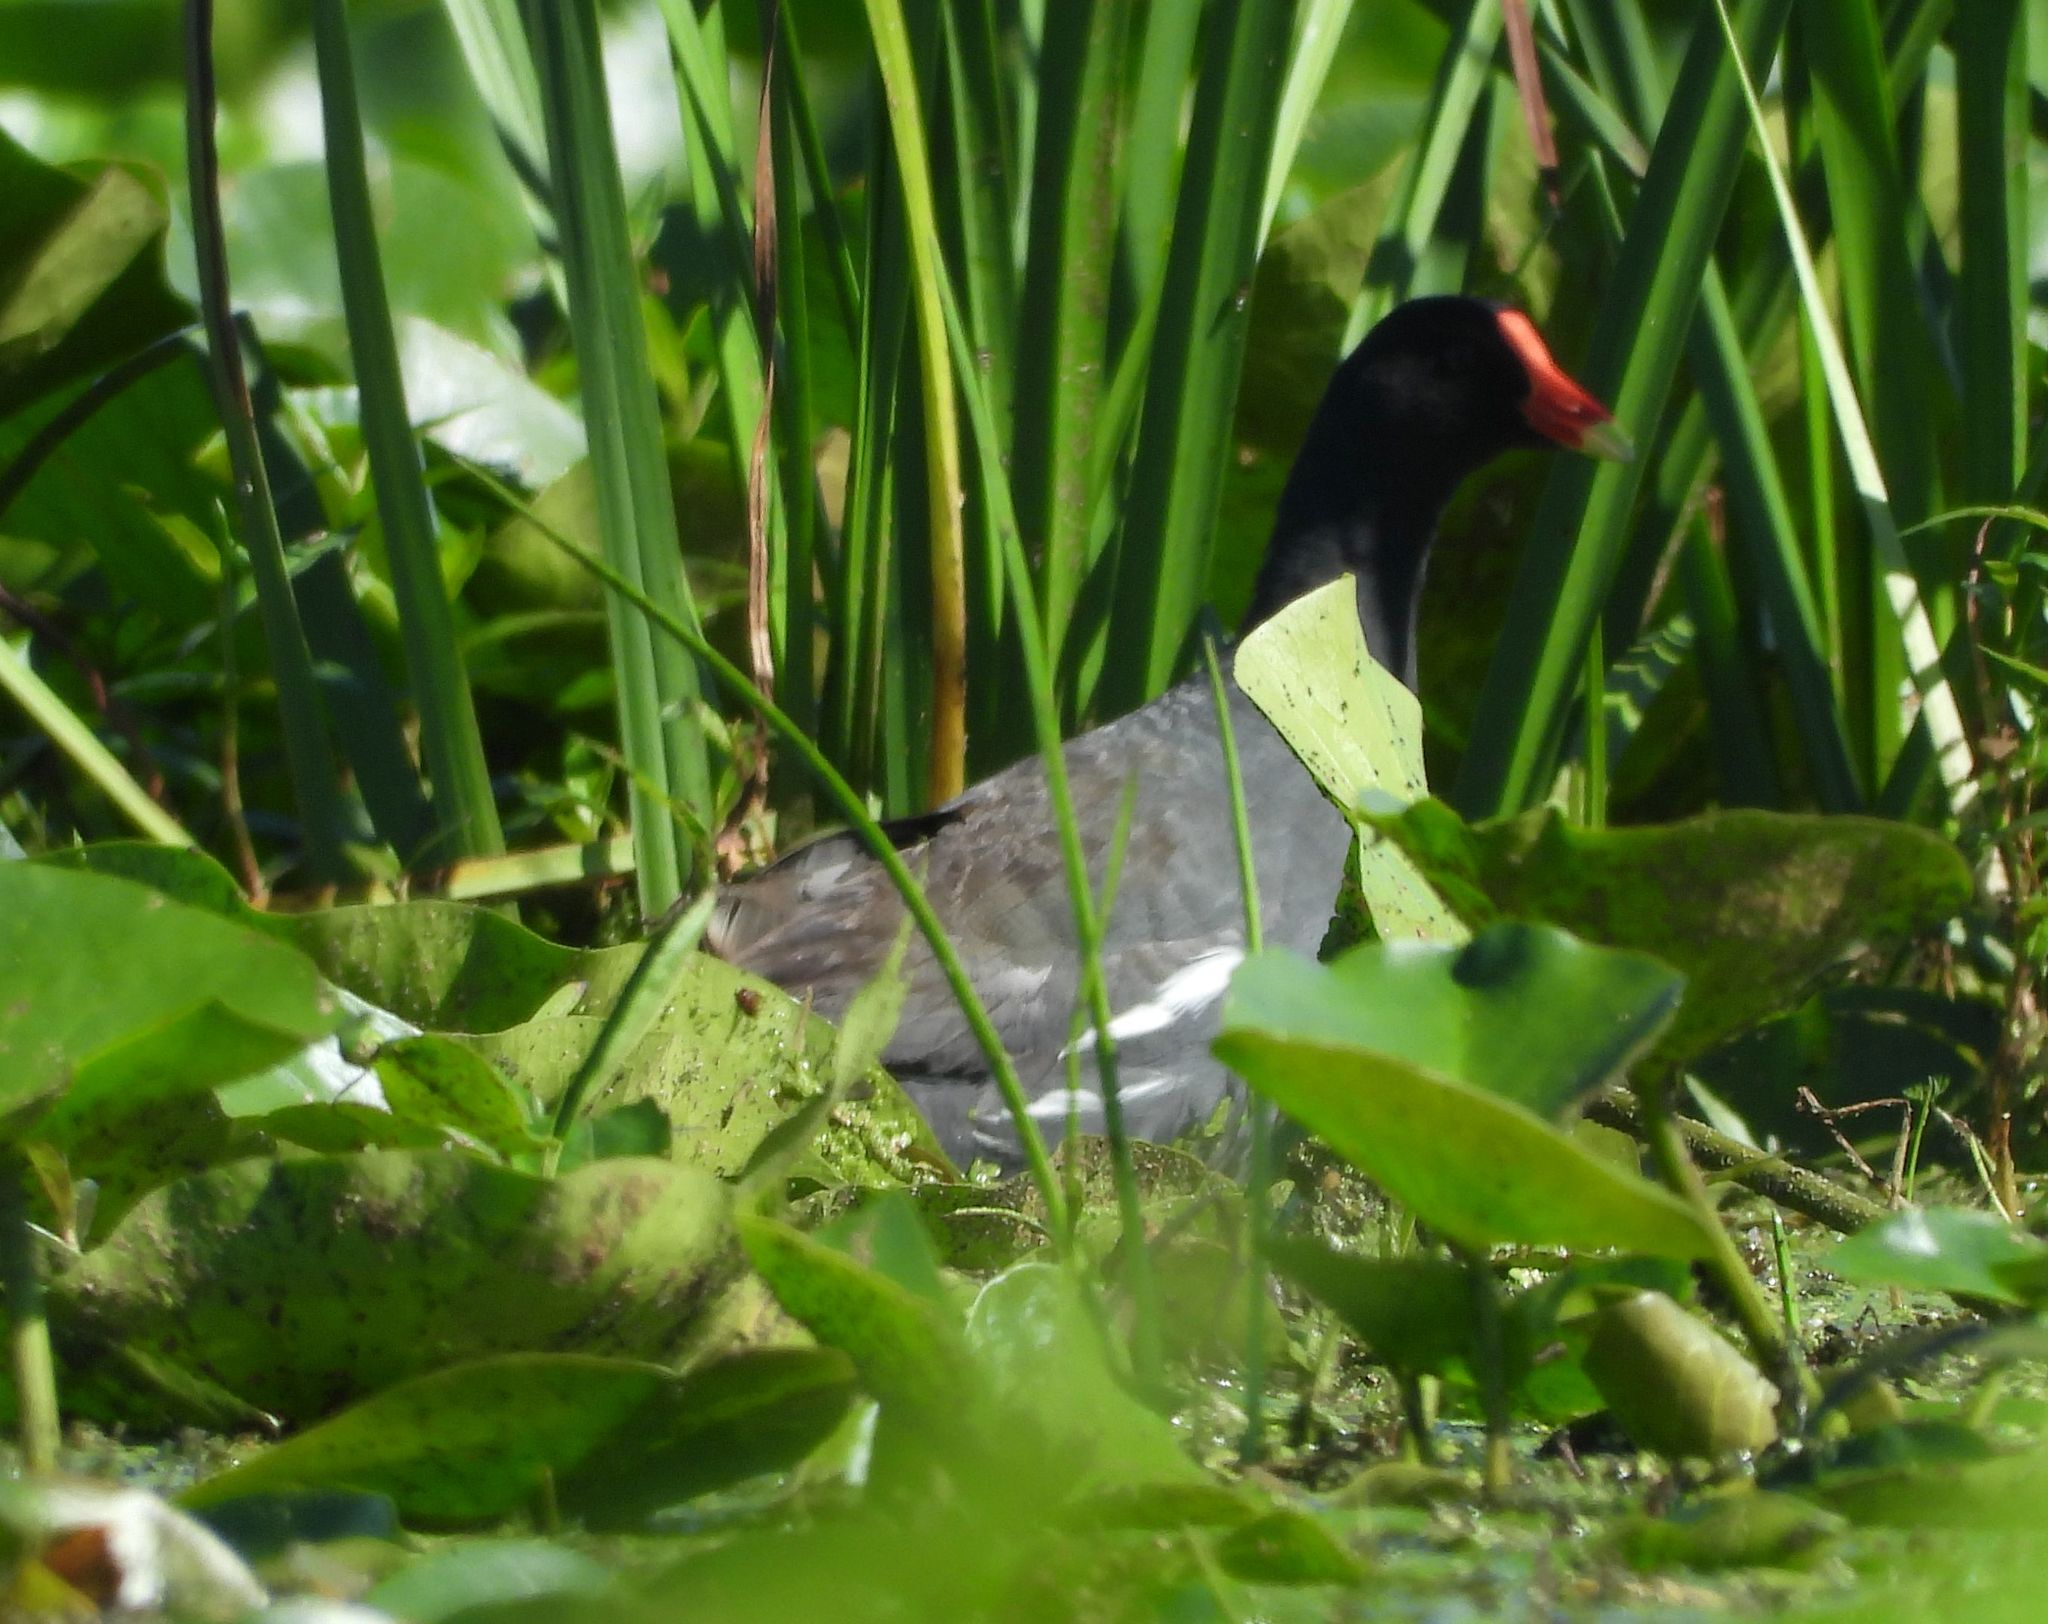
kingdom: Animalia
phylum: Chordata
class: Aves
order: Gruiformes
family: Rallidae
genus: Gallinula
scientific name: Gallinula chloropus
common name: Common moorhen
